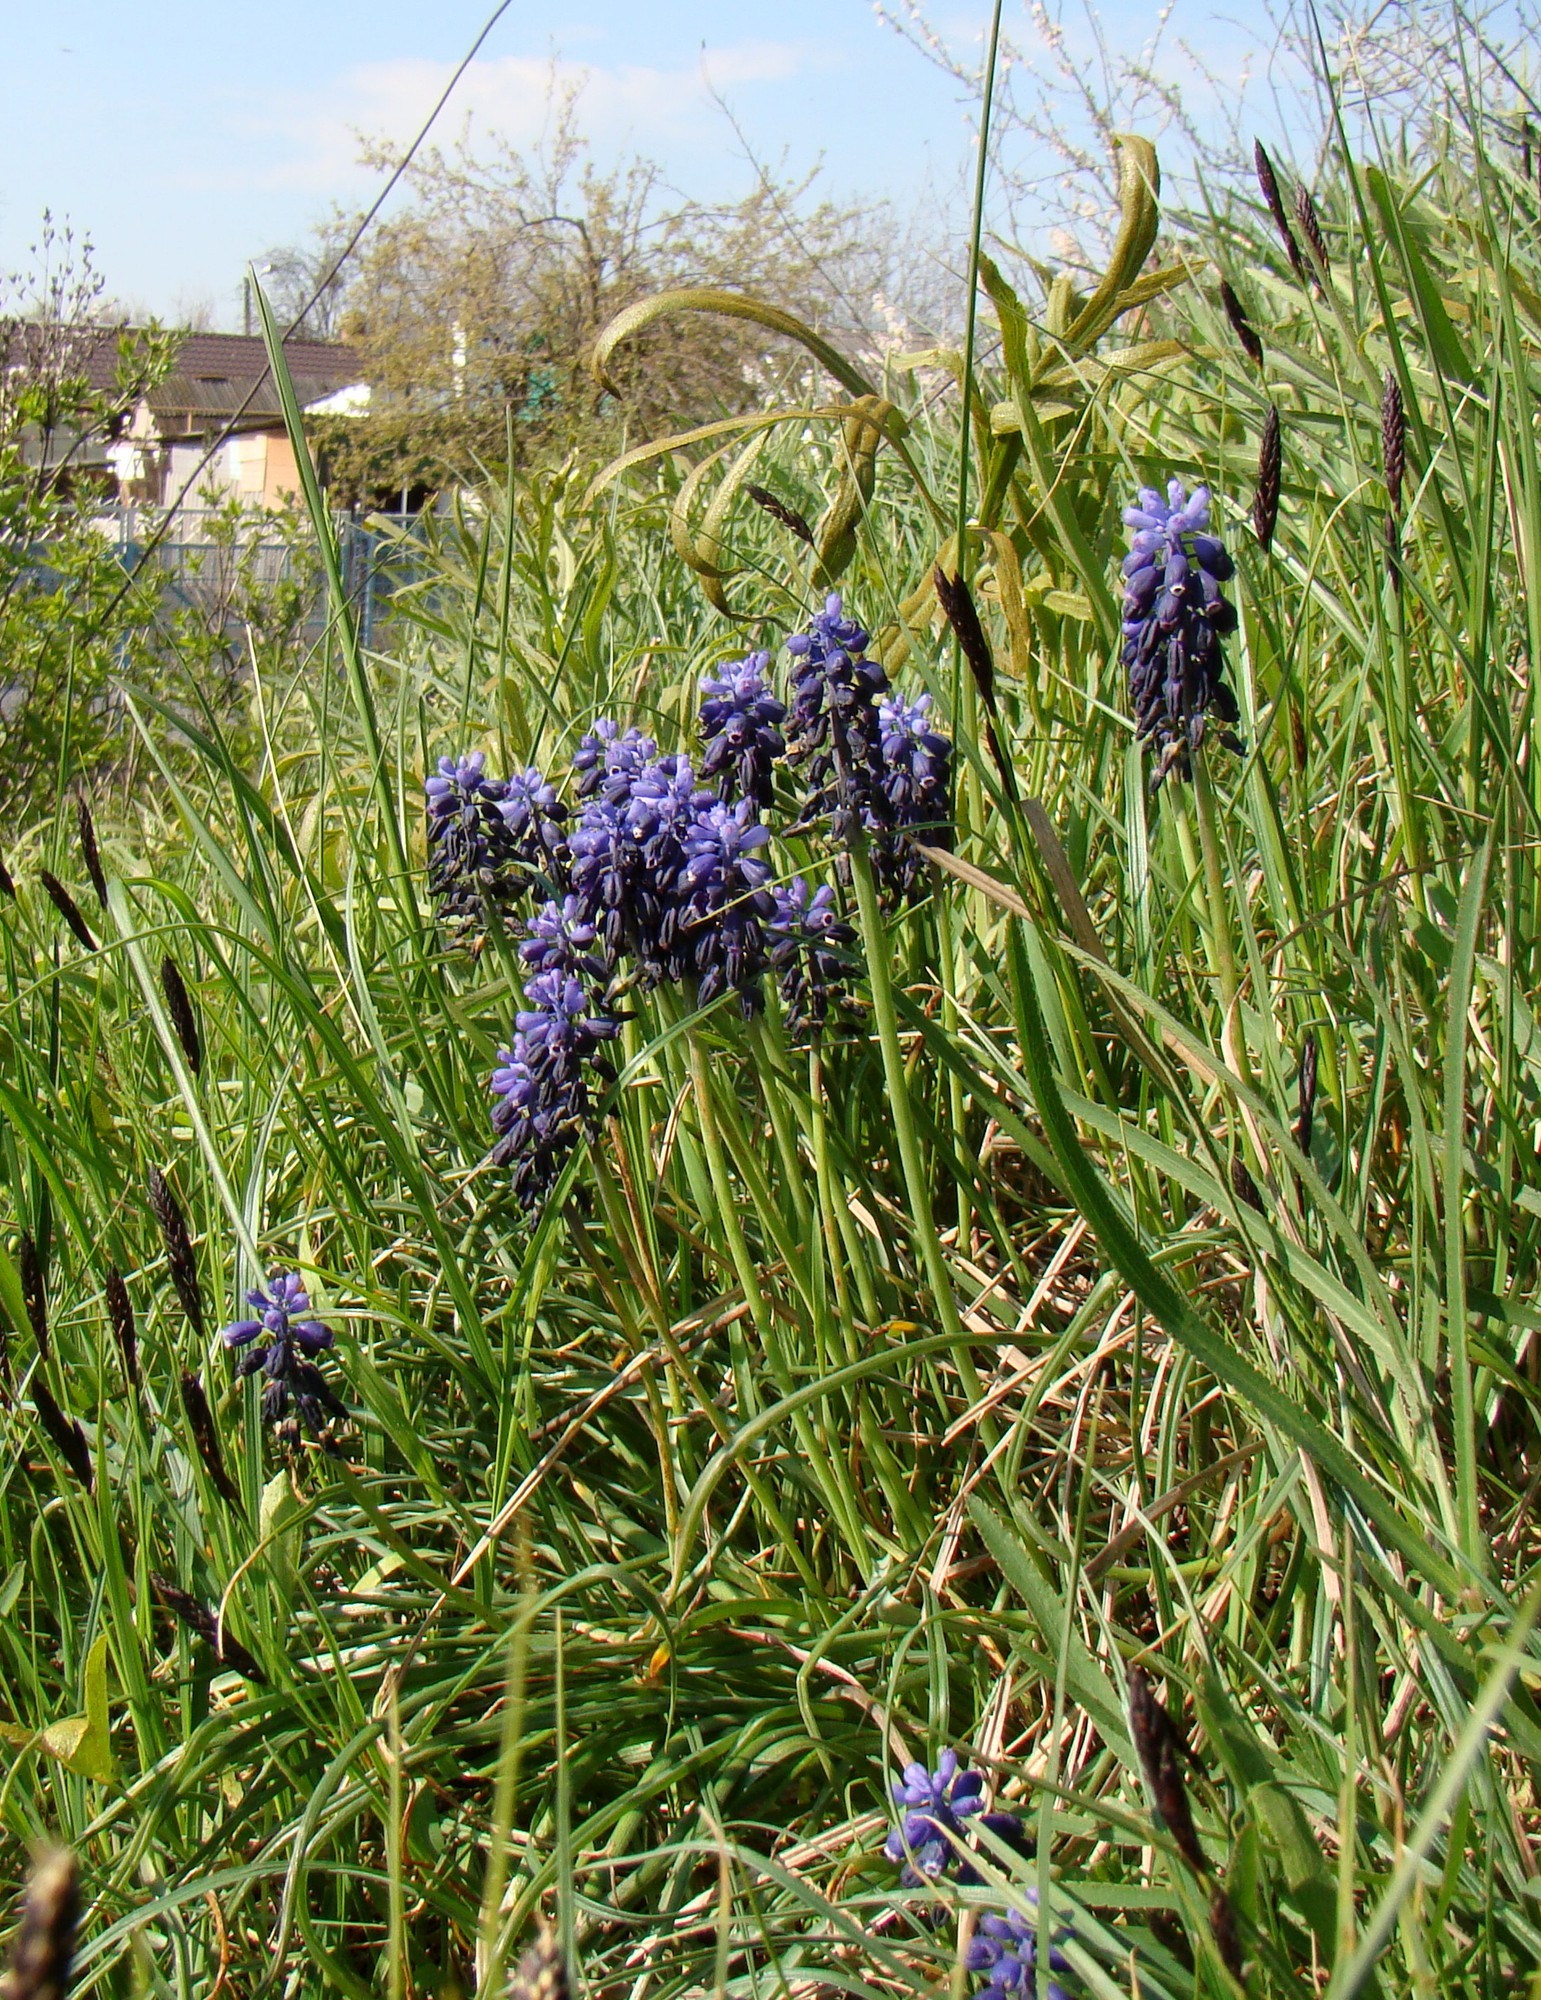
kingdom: Plantae
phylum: Tracheophyta
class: Liliopsida
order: Asparagales
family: Asparagaceae
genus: Muscari
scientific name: Muscari neglectum
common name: Grape-hyacinth
